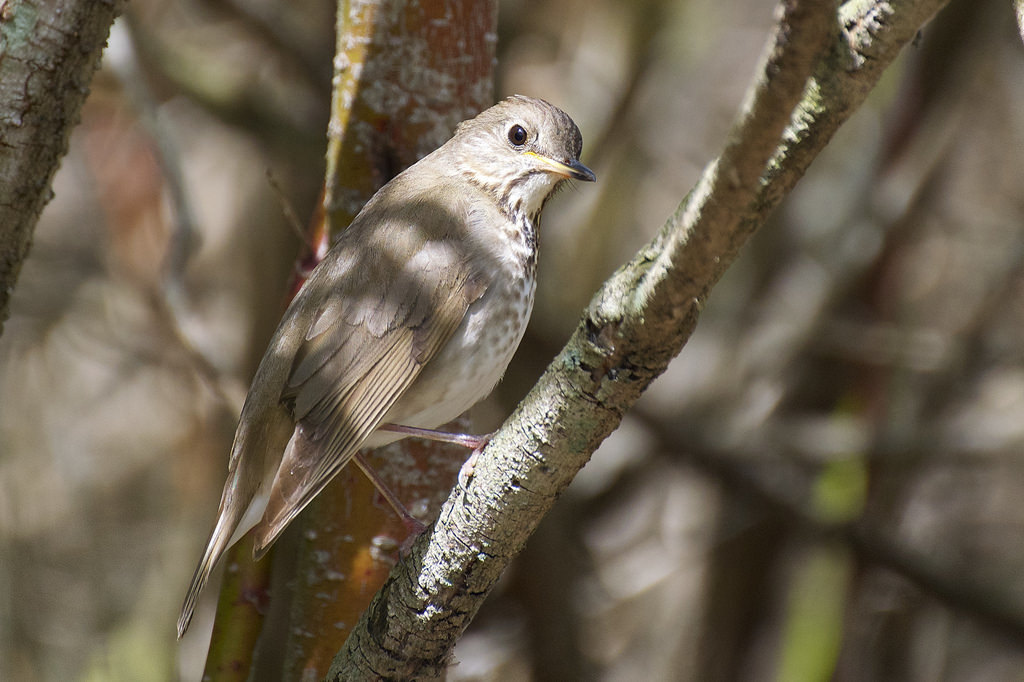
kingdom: Animalia
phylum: Chordata
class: Aves
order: Passeriformes
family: Turdidae
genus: Catharus
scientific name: Catharus minimus
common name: Grey-cheeked thrush
